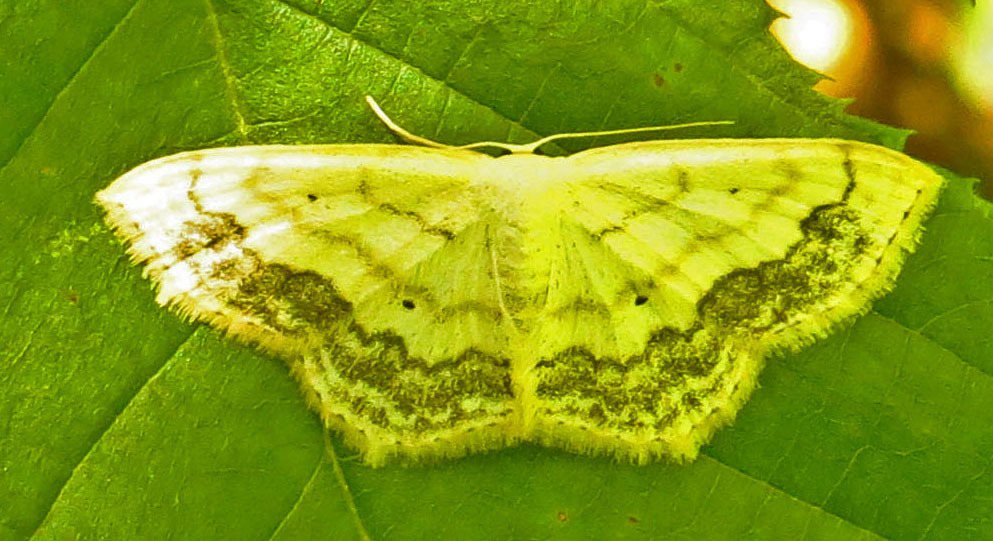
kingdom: Animalia
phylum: Arthropoda
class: Insecta
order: Lepidoptera
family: Geometridae
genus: Scopula
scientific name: Scopula limboundata
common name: Large lace border
